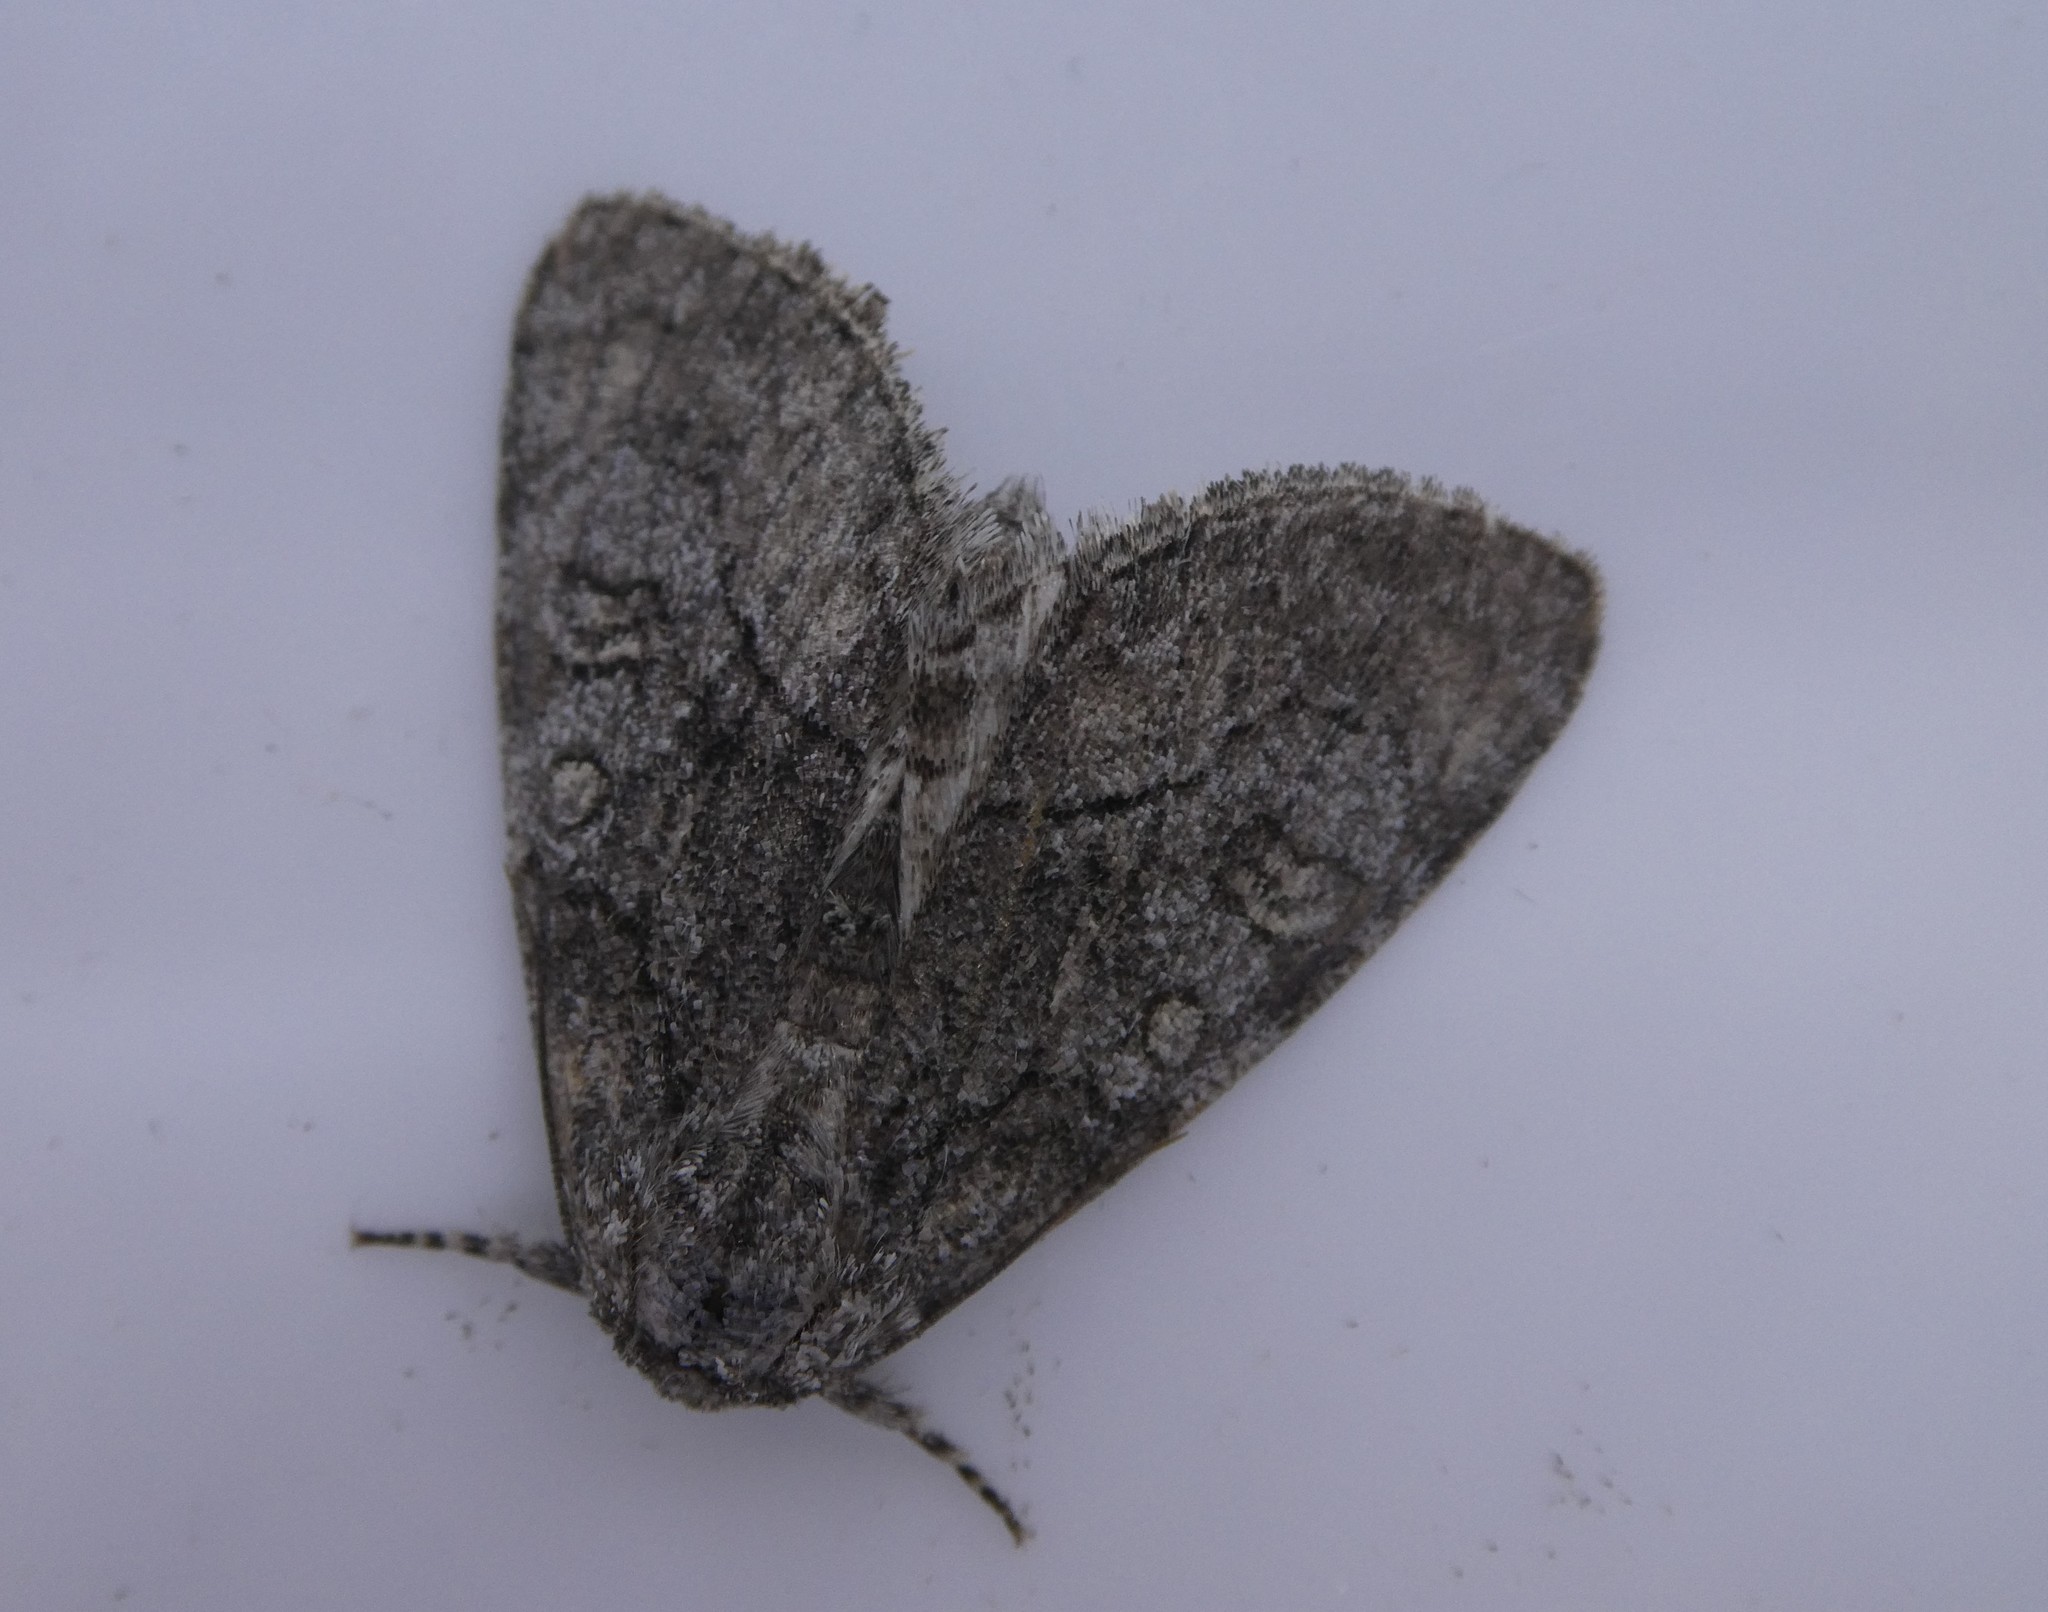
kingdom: Animalia
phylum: Arthropoda
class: Insecta
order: Lepidoptera
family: Noctuidae
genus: Raphia
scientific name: Raphia frater
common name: Brother
